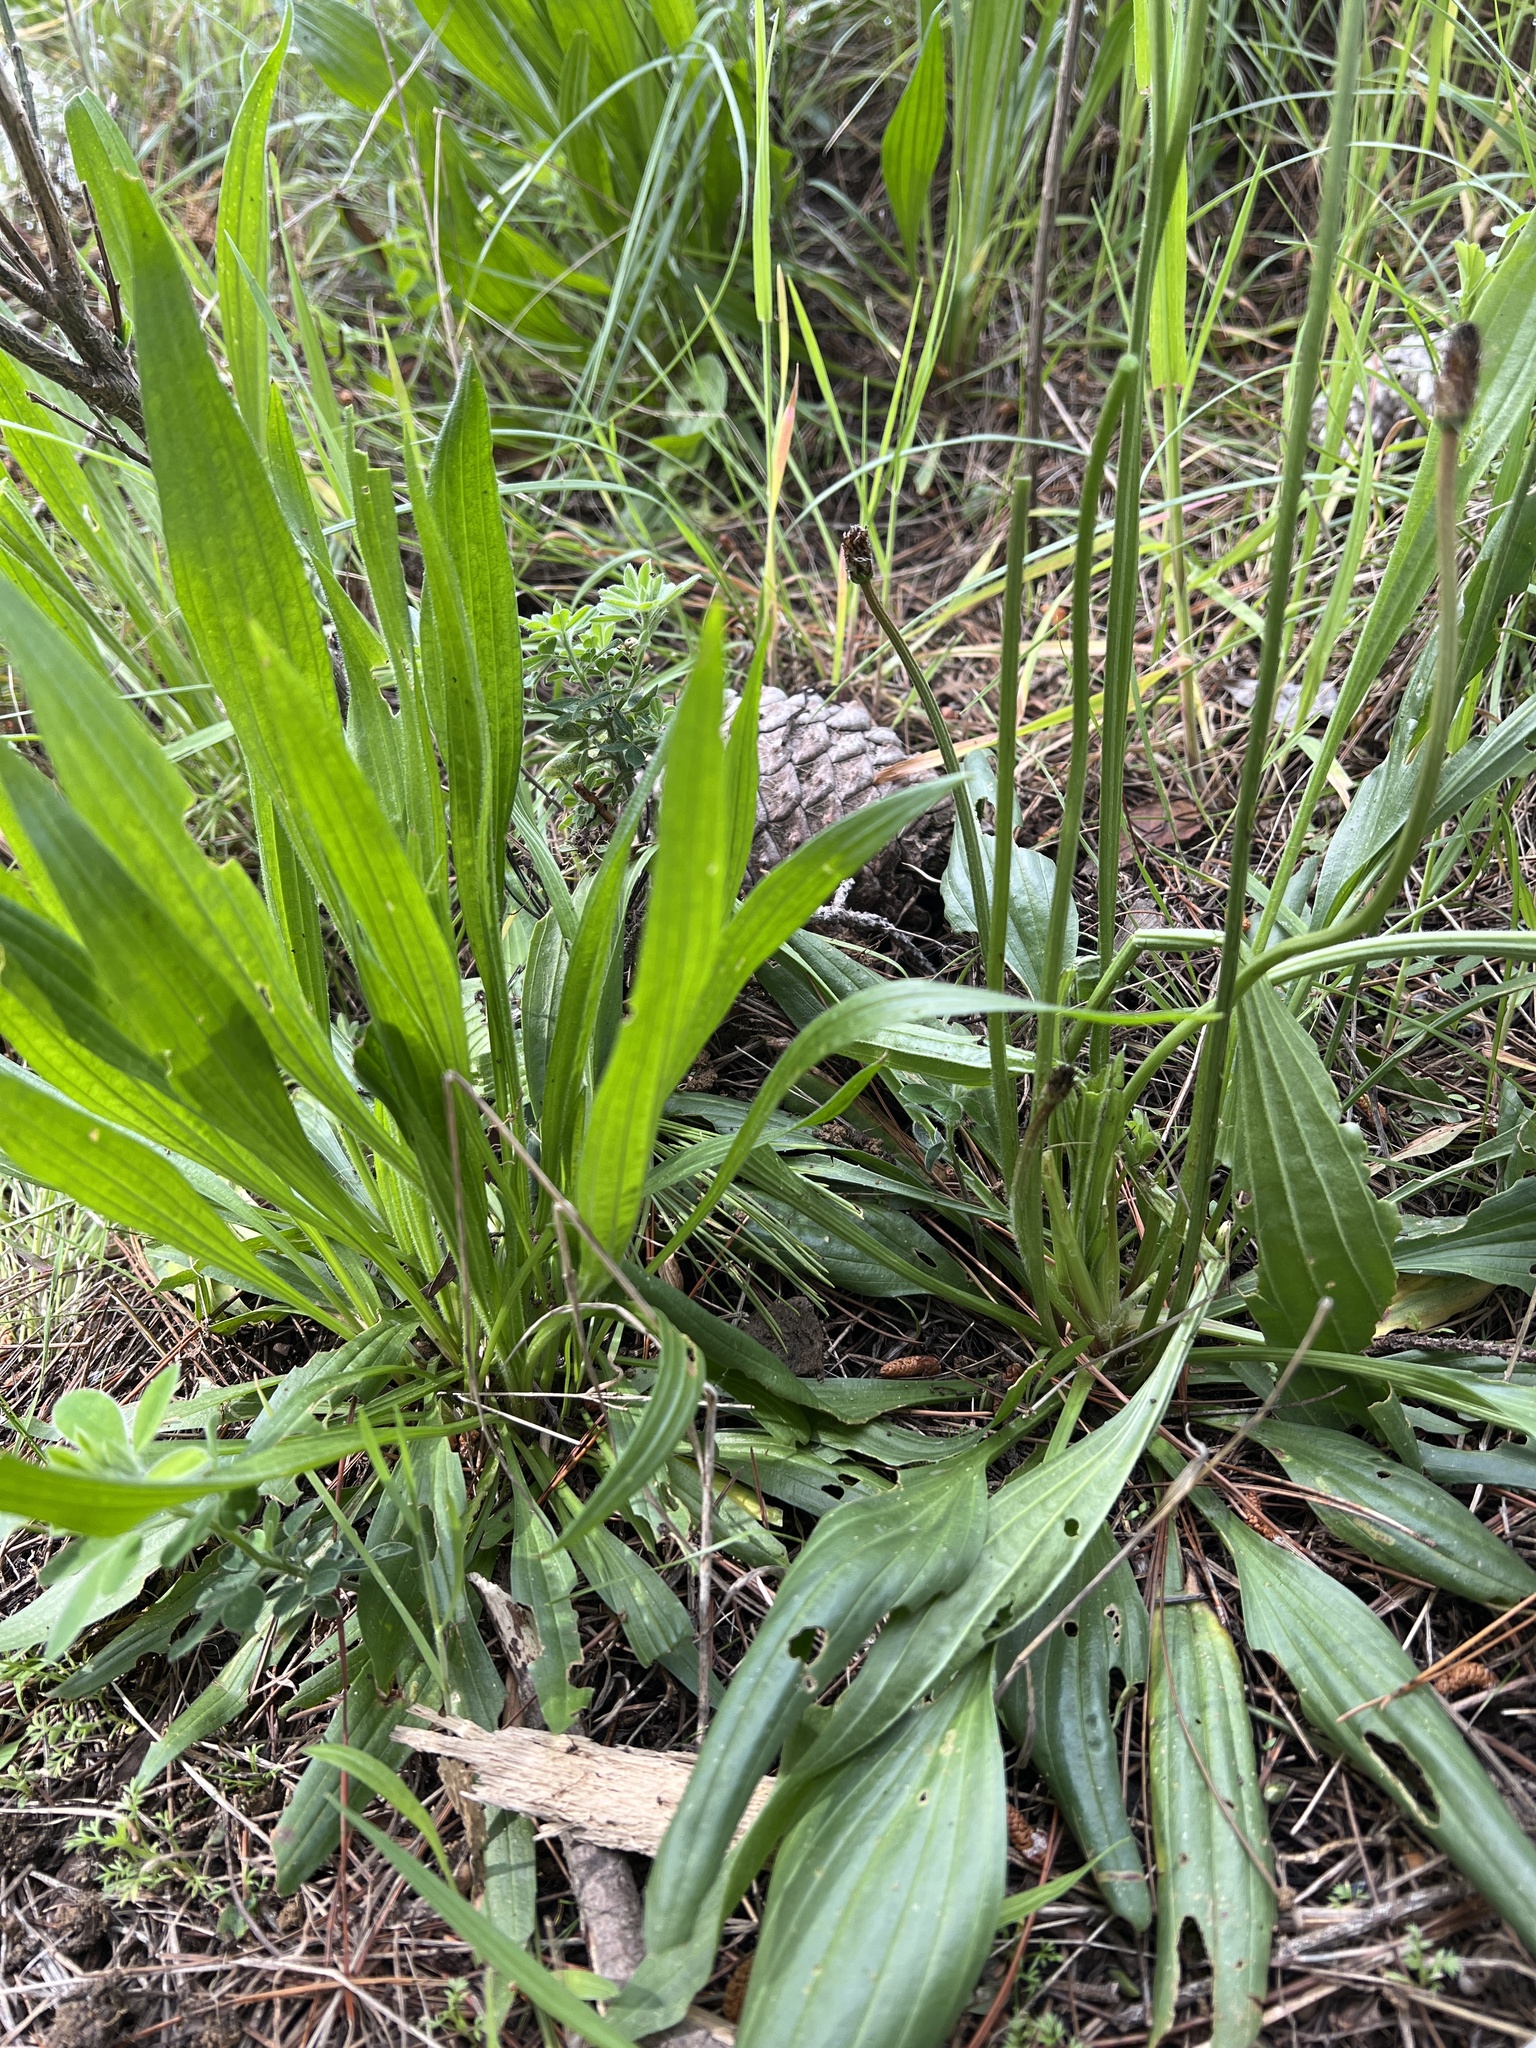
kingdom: Plantae
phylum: Tracheophyta
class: Magnoliopsida
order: Lamiales
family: Plantaginaceae
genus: Plantago
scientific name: Plantago lanceolata
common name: Ribwort plantain
